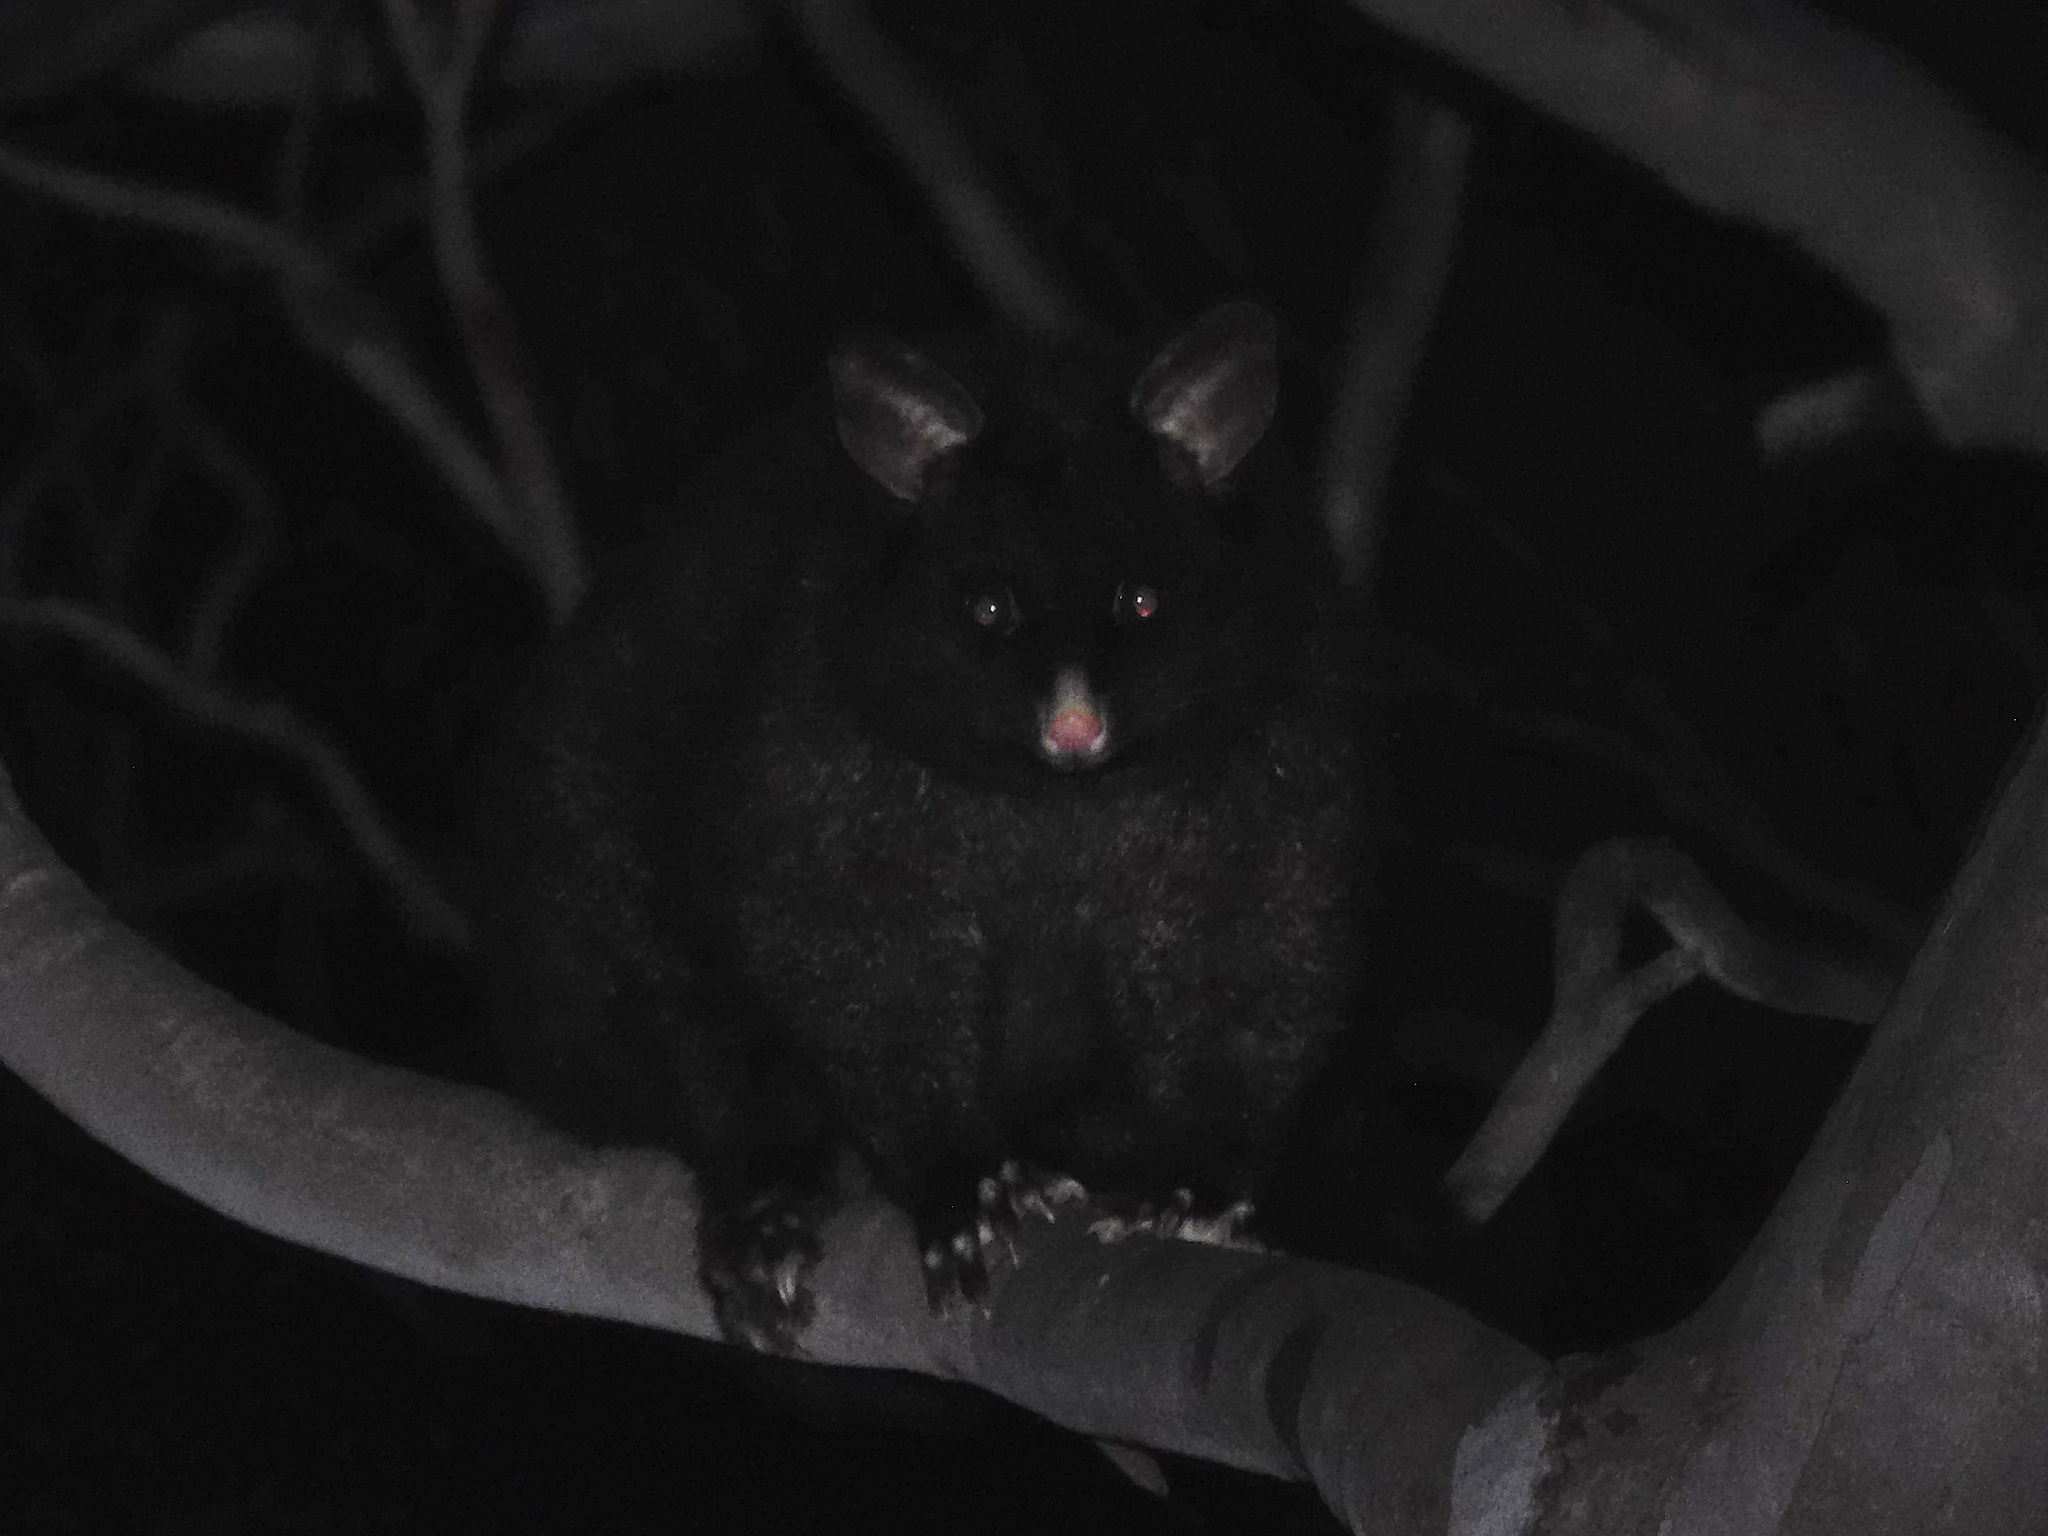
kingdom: Animalia
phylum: Chordata
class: Mammalia
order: Diprotodontia
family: Phalangeridae
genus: Trichosurus
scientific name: Trichosurus vulpecula
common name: Common brushtail
